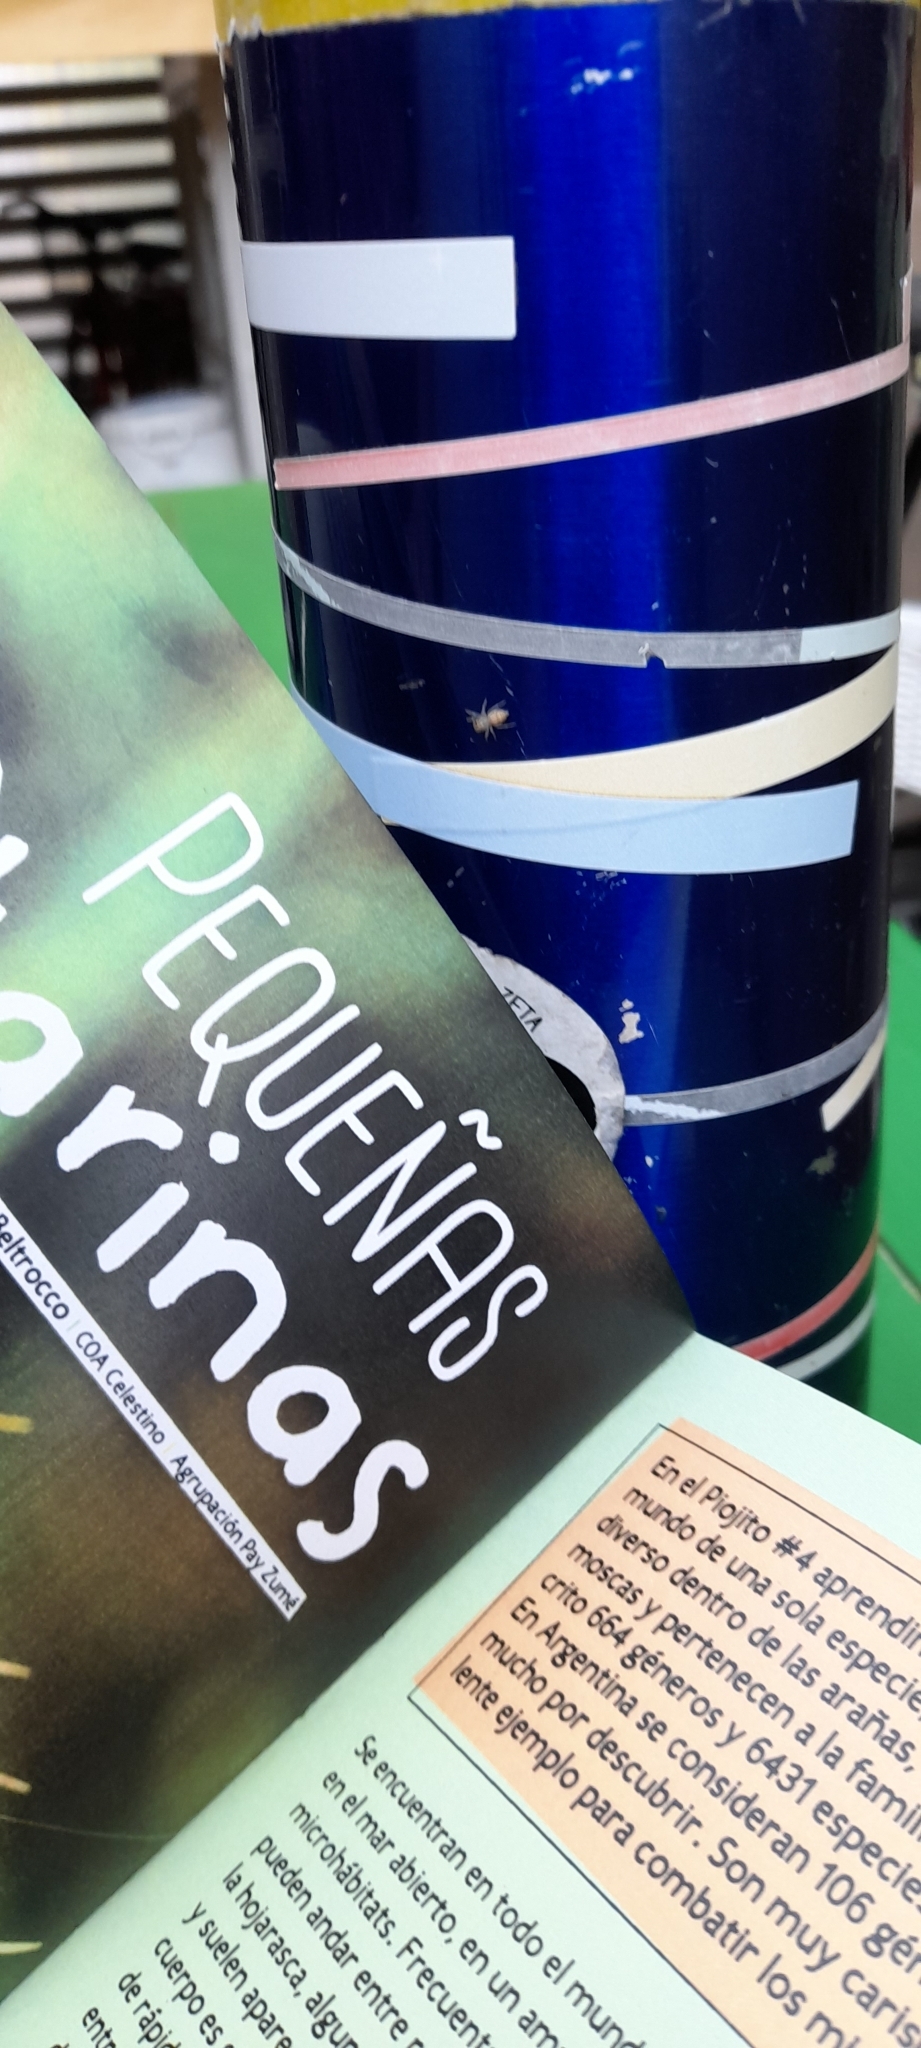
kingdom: Animalia
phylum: Arthropoda
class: Arachnida
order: Araneae
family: Salticidae
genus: Chira
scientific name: Chira gounellei
